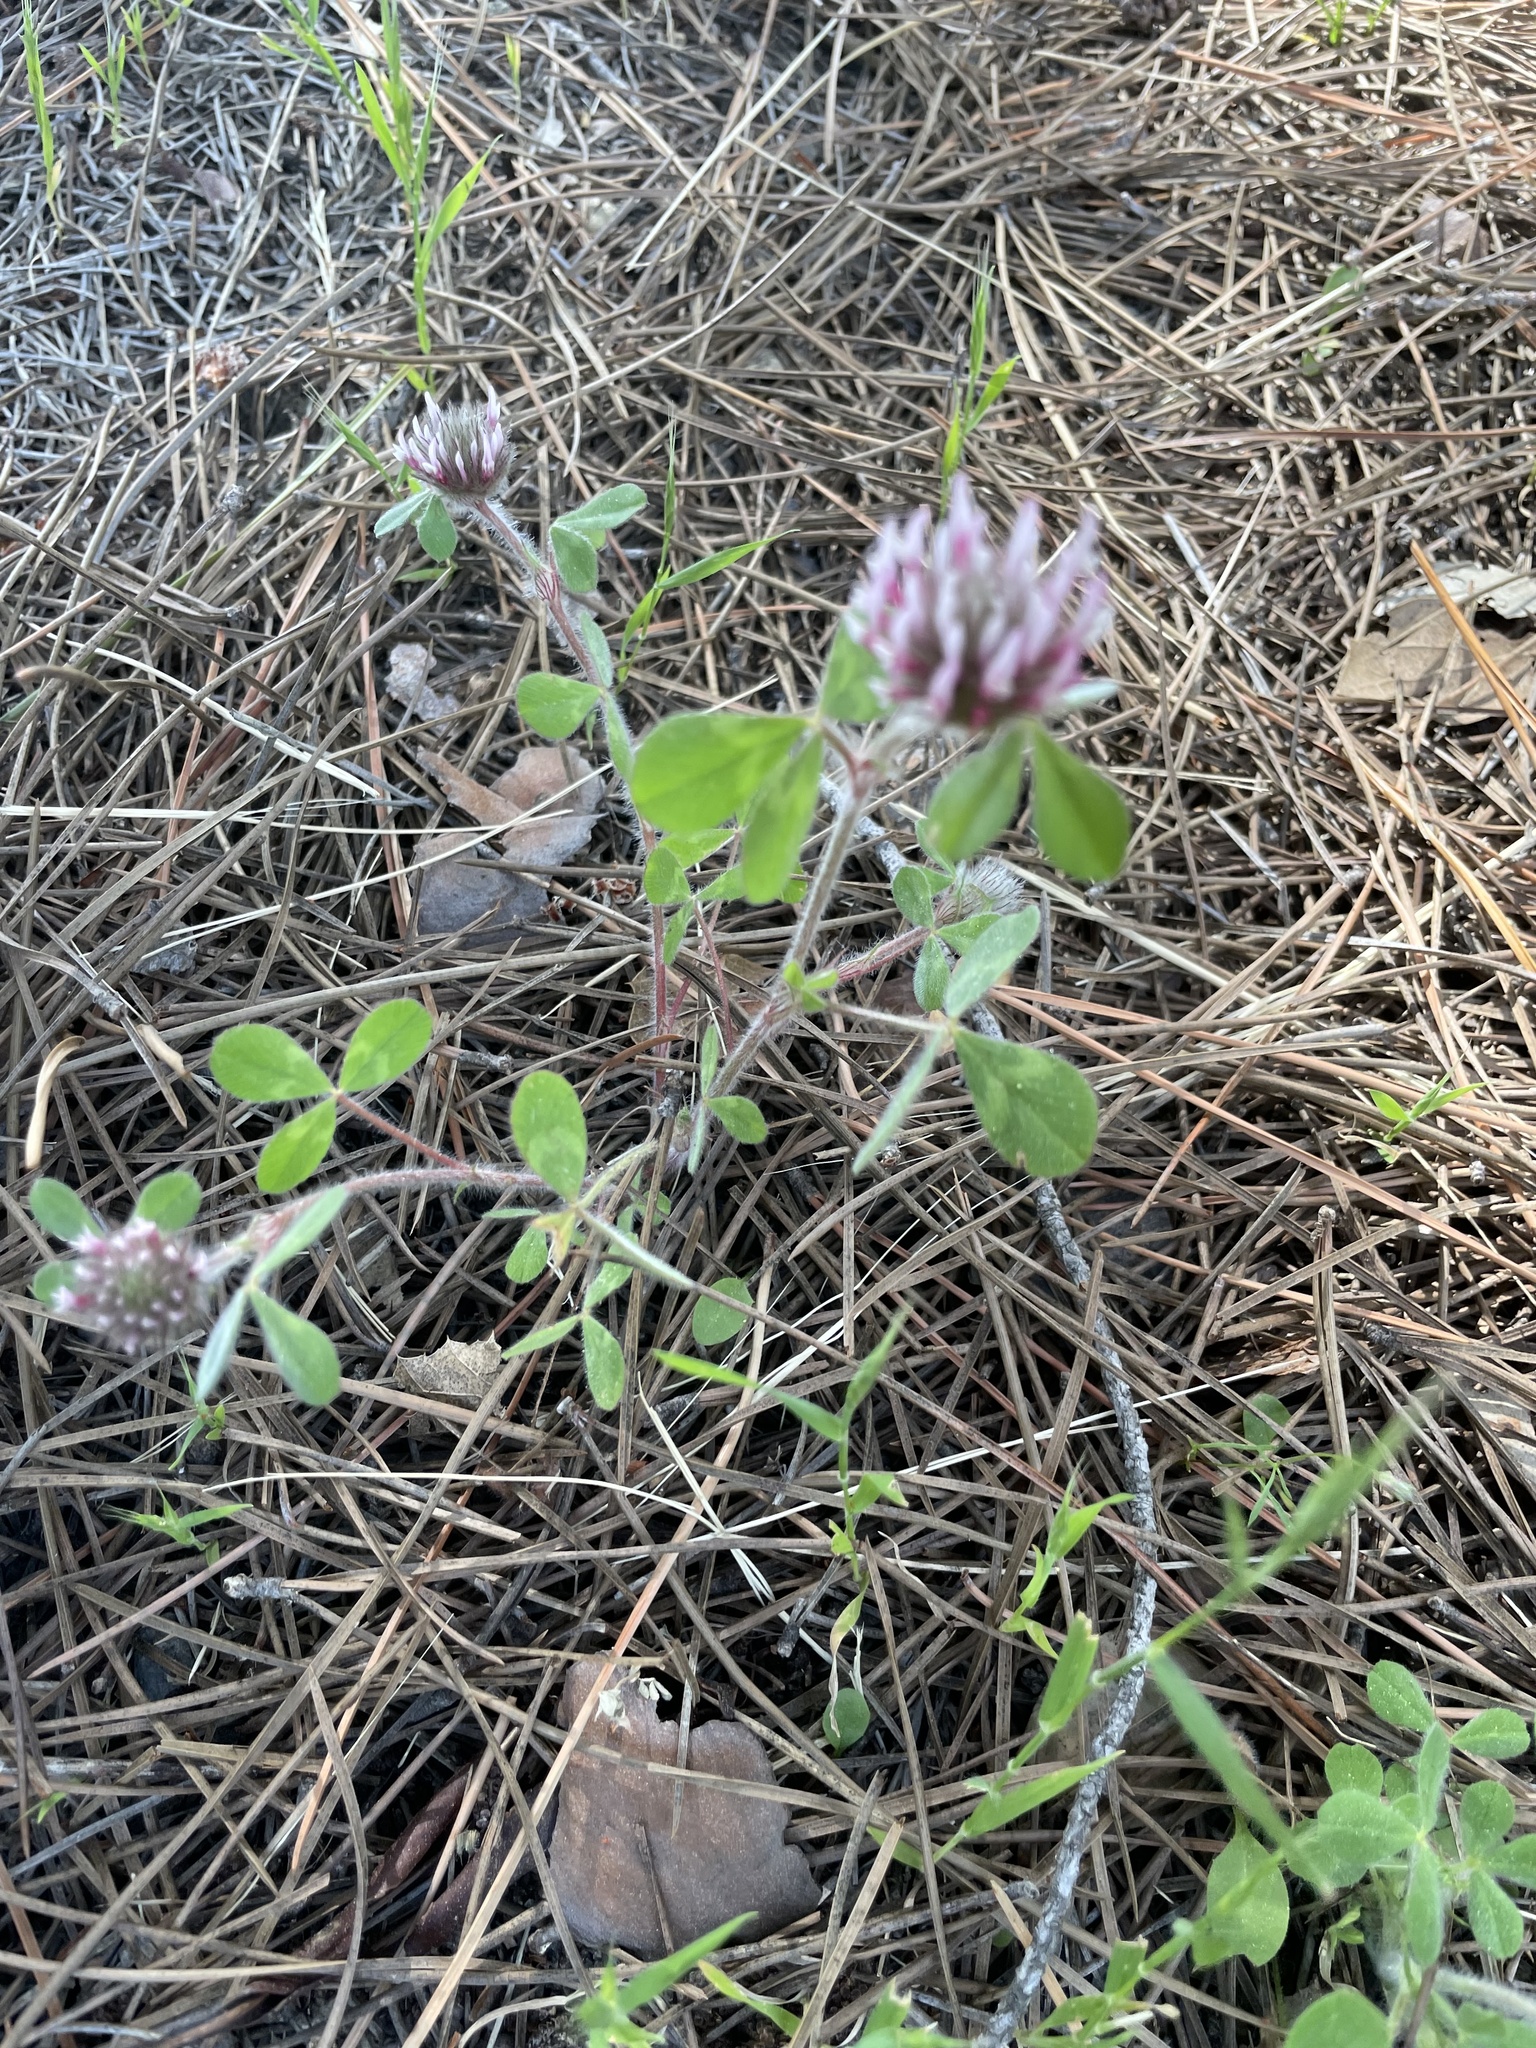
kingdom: Plantae
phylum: Tracheophyta
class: Magnoliopsida
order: Fabales
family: Fabaceae
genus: Trifolium
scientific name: Trifolium hirtum
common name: Rose clover
